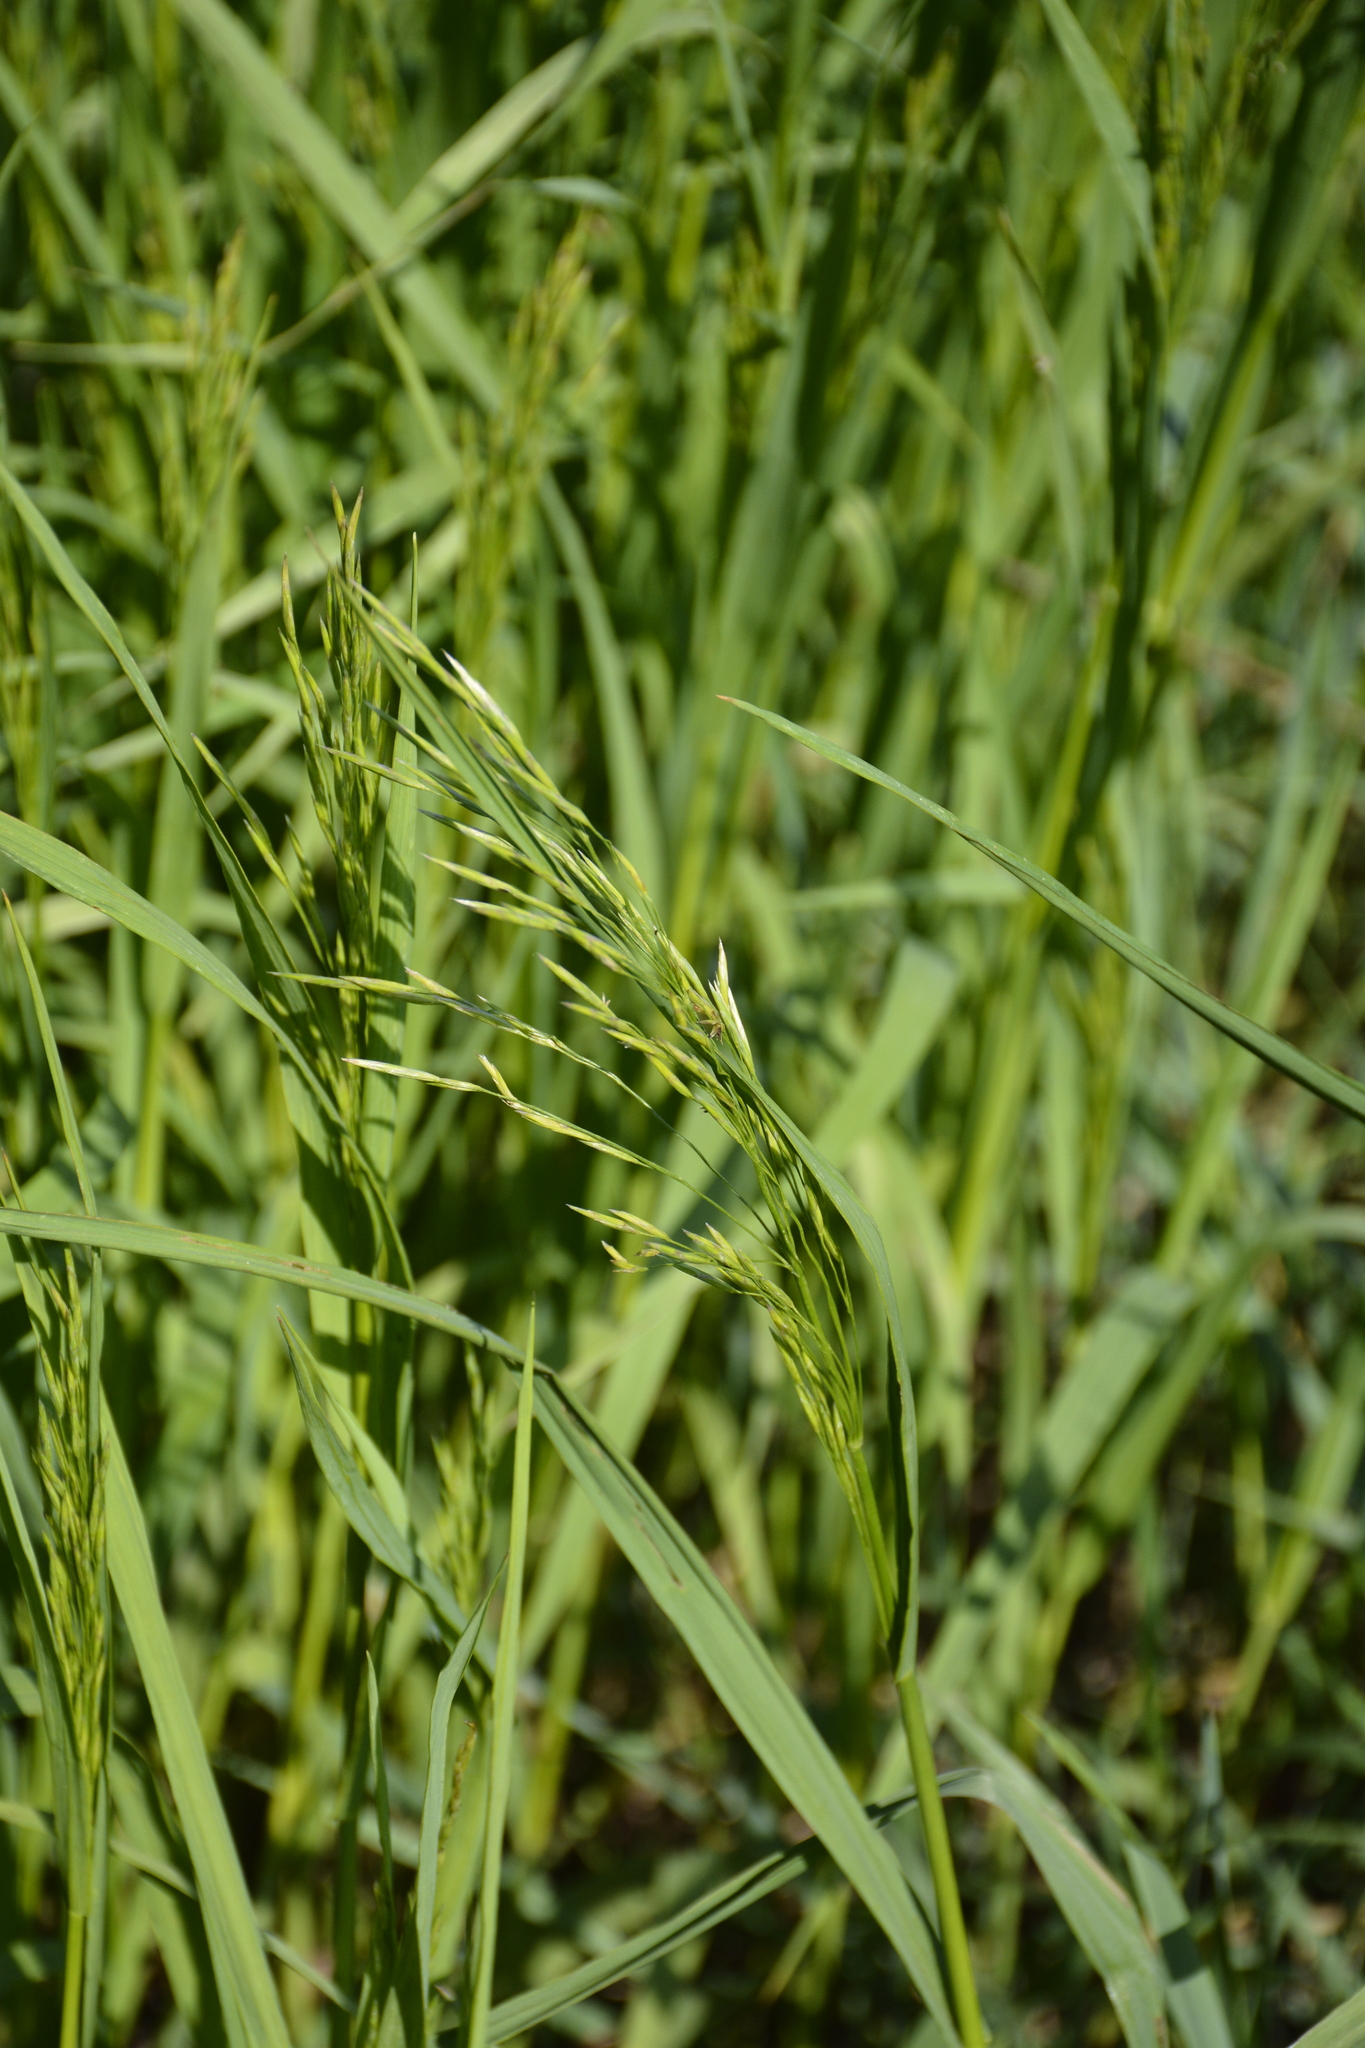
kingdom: Plantae
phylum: Tracheophyta
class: Liliopsida
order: Poales
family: Poaceae
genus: Bromus
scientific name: Bromus inermis
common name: Smooth brome
